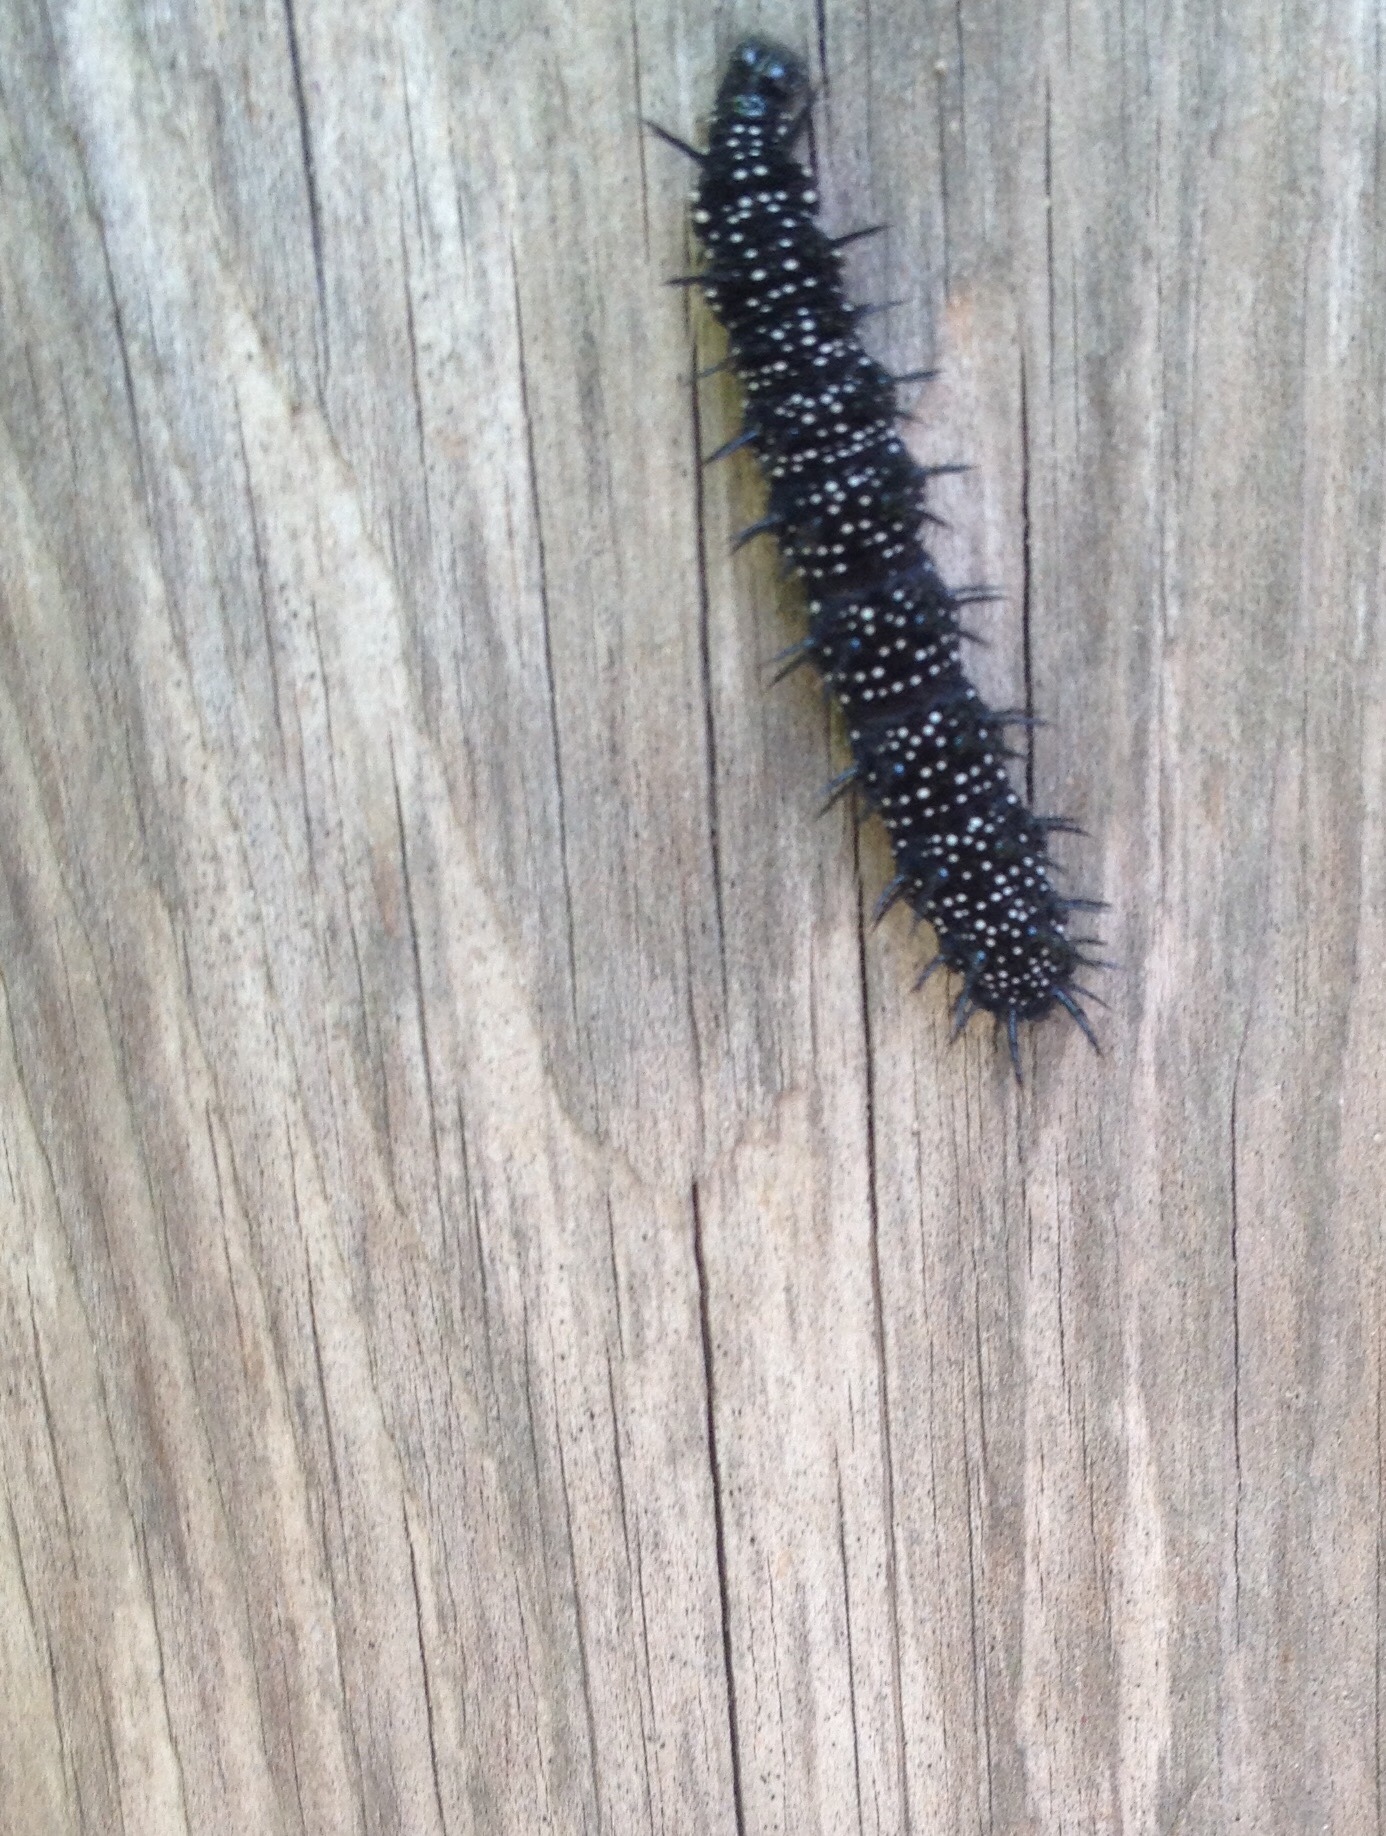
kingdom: Animalia
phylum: Arthropoda
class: Insecta
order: Lepidoptera
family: Nymphalidae
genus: Aglais
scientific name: Aglais io
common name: Peacock
